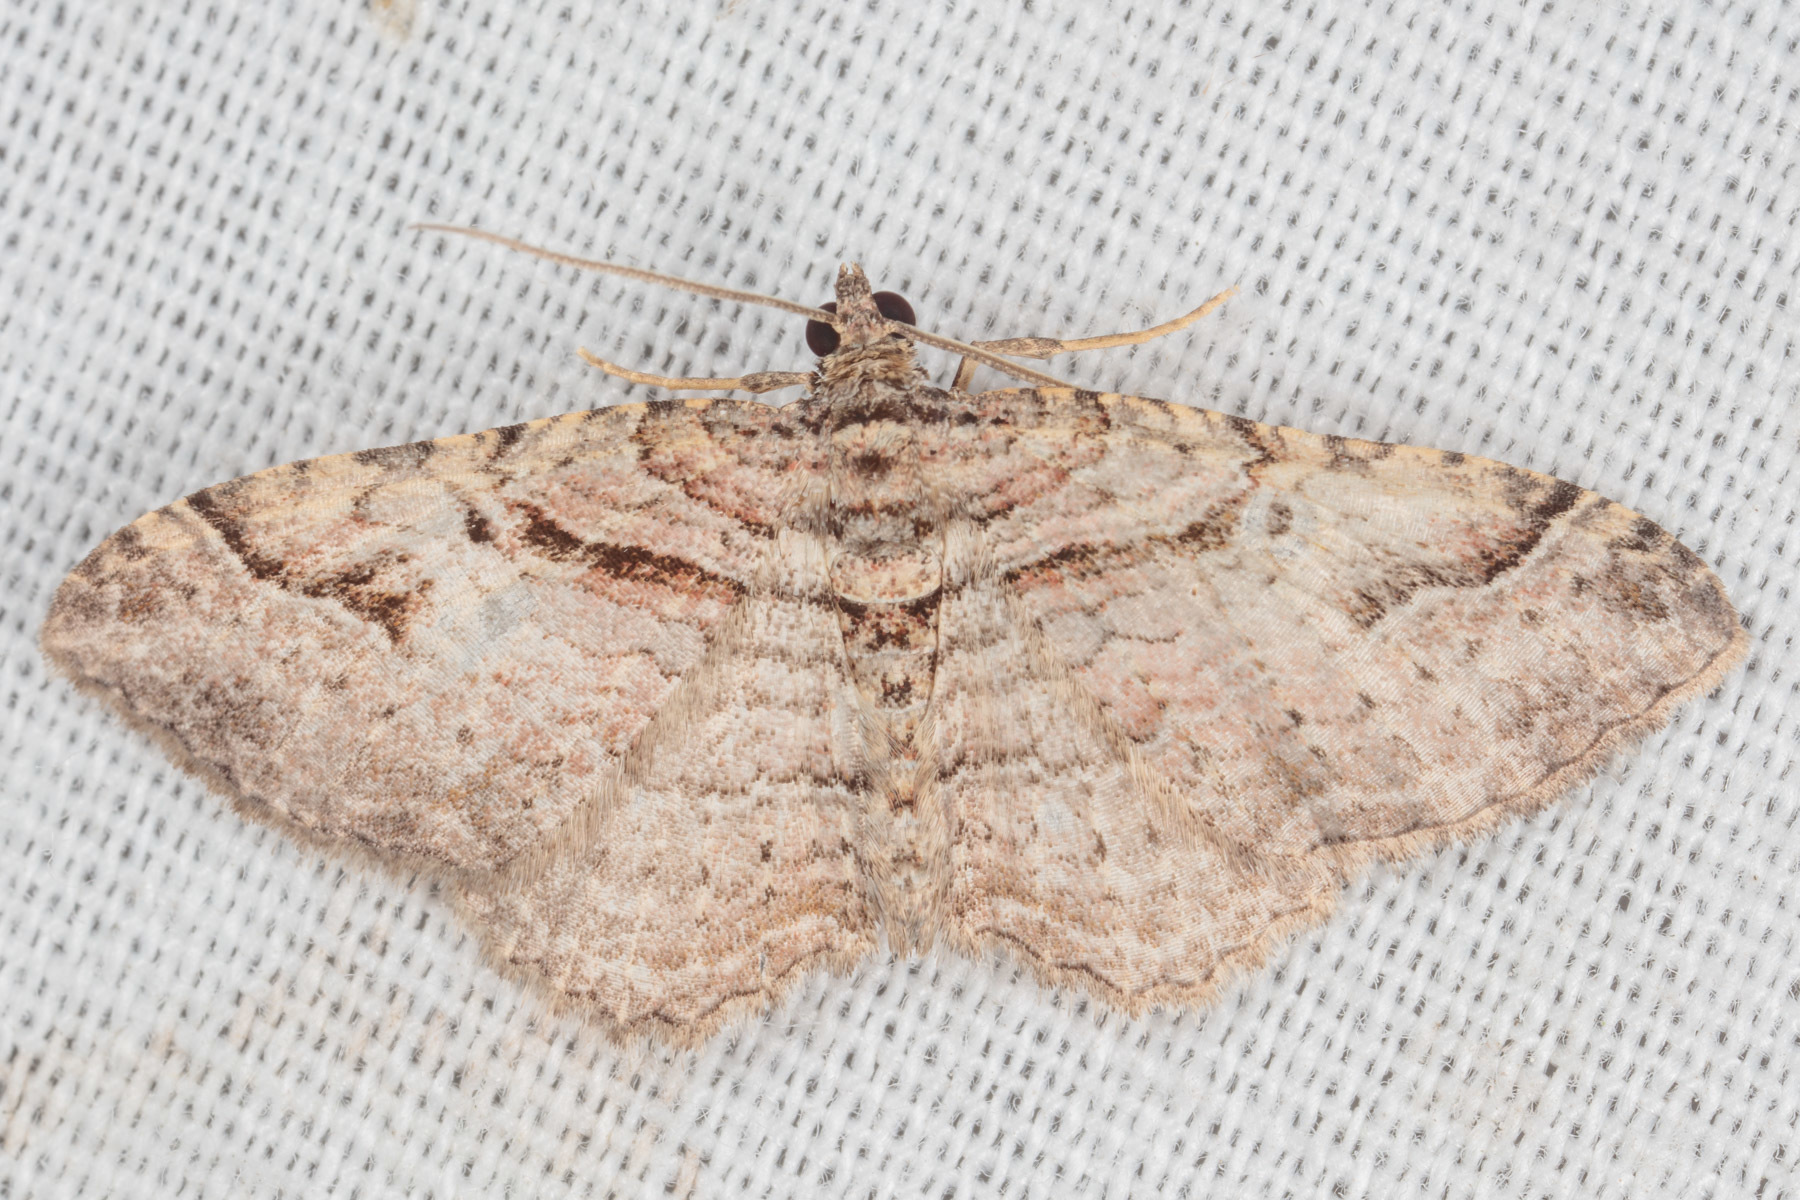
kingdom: Animalia
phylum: Arthropoda
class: Insecta
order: Lepidoptera
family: Geometridae
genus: Costaconvexa
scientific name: Costaconvexa centrostrigaria
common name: Bent-line carpet
